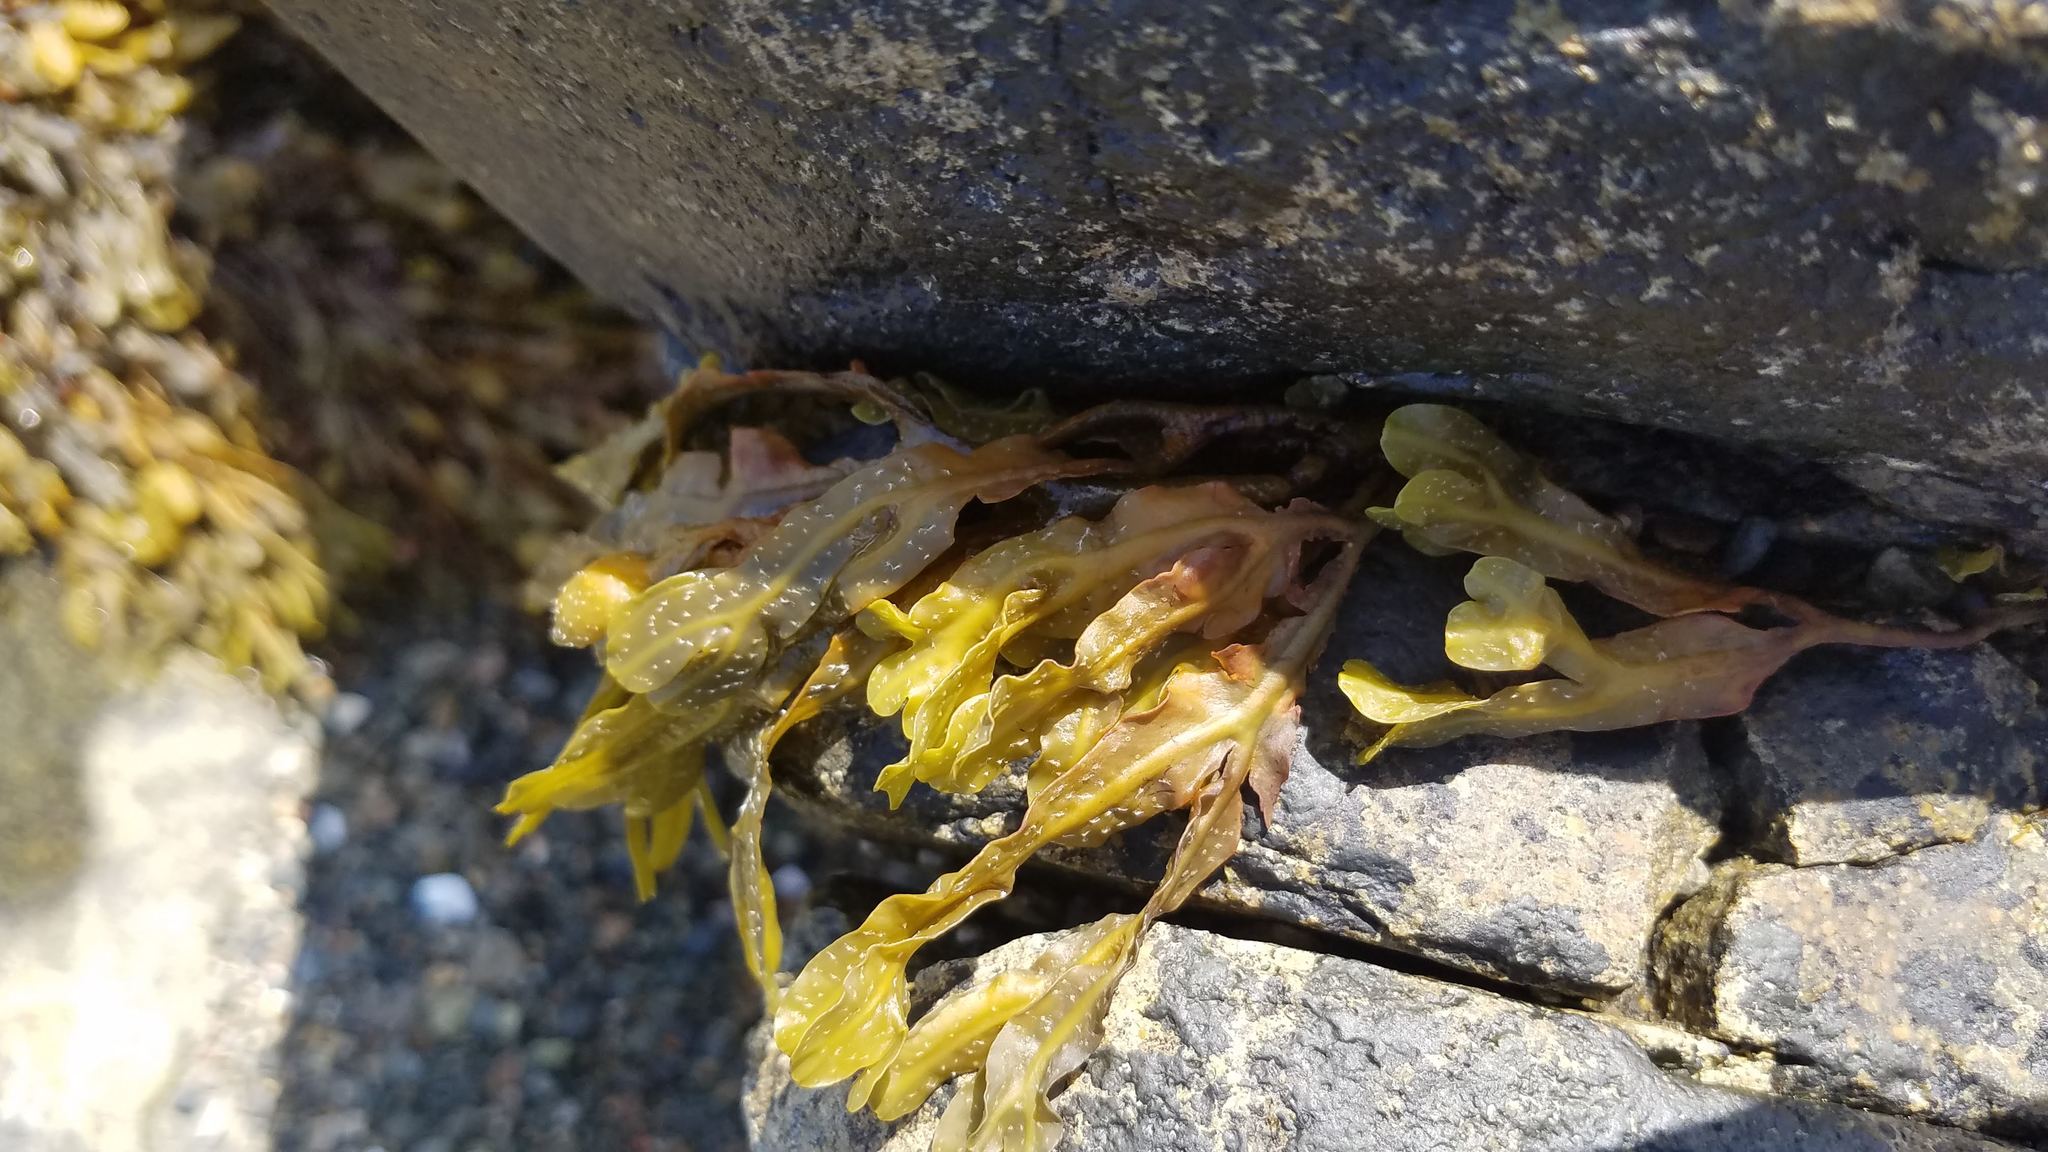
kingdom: Chromista
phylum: Ochrophyta
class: Phaeophyceae
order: Fucales
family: Fucaceae
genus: Fucus
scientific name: Fucus
